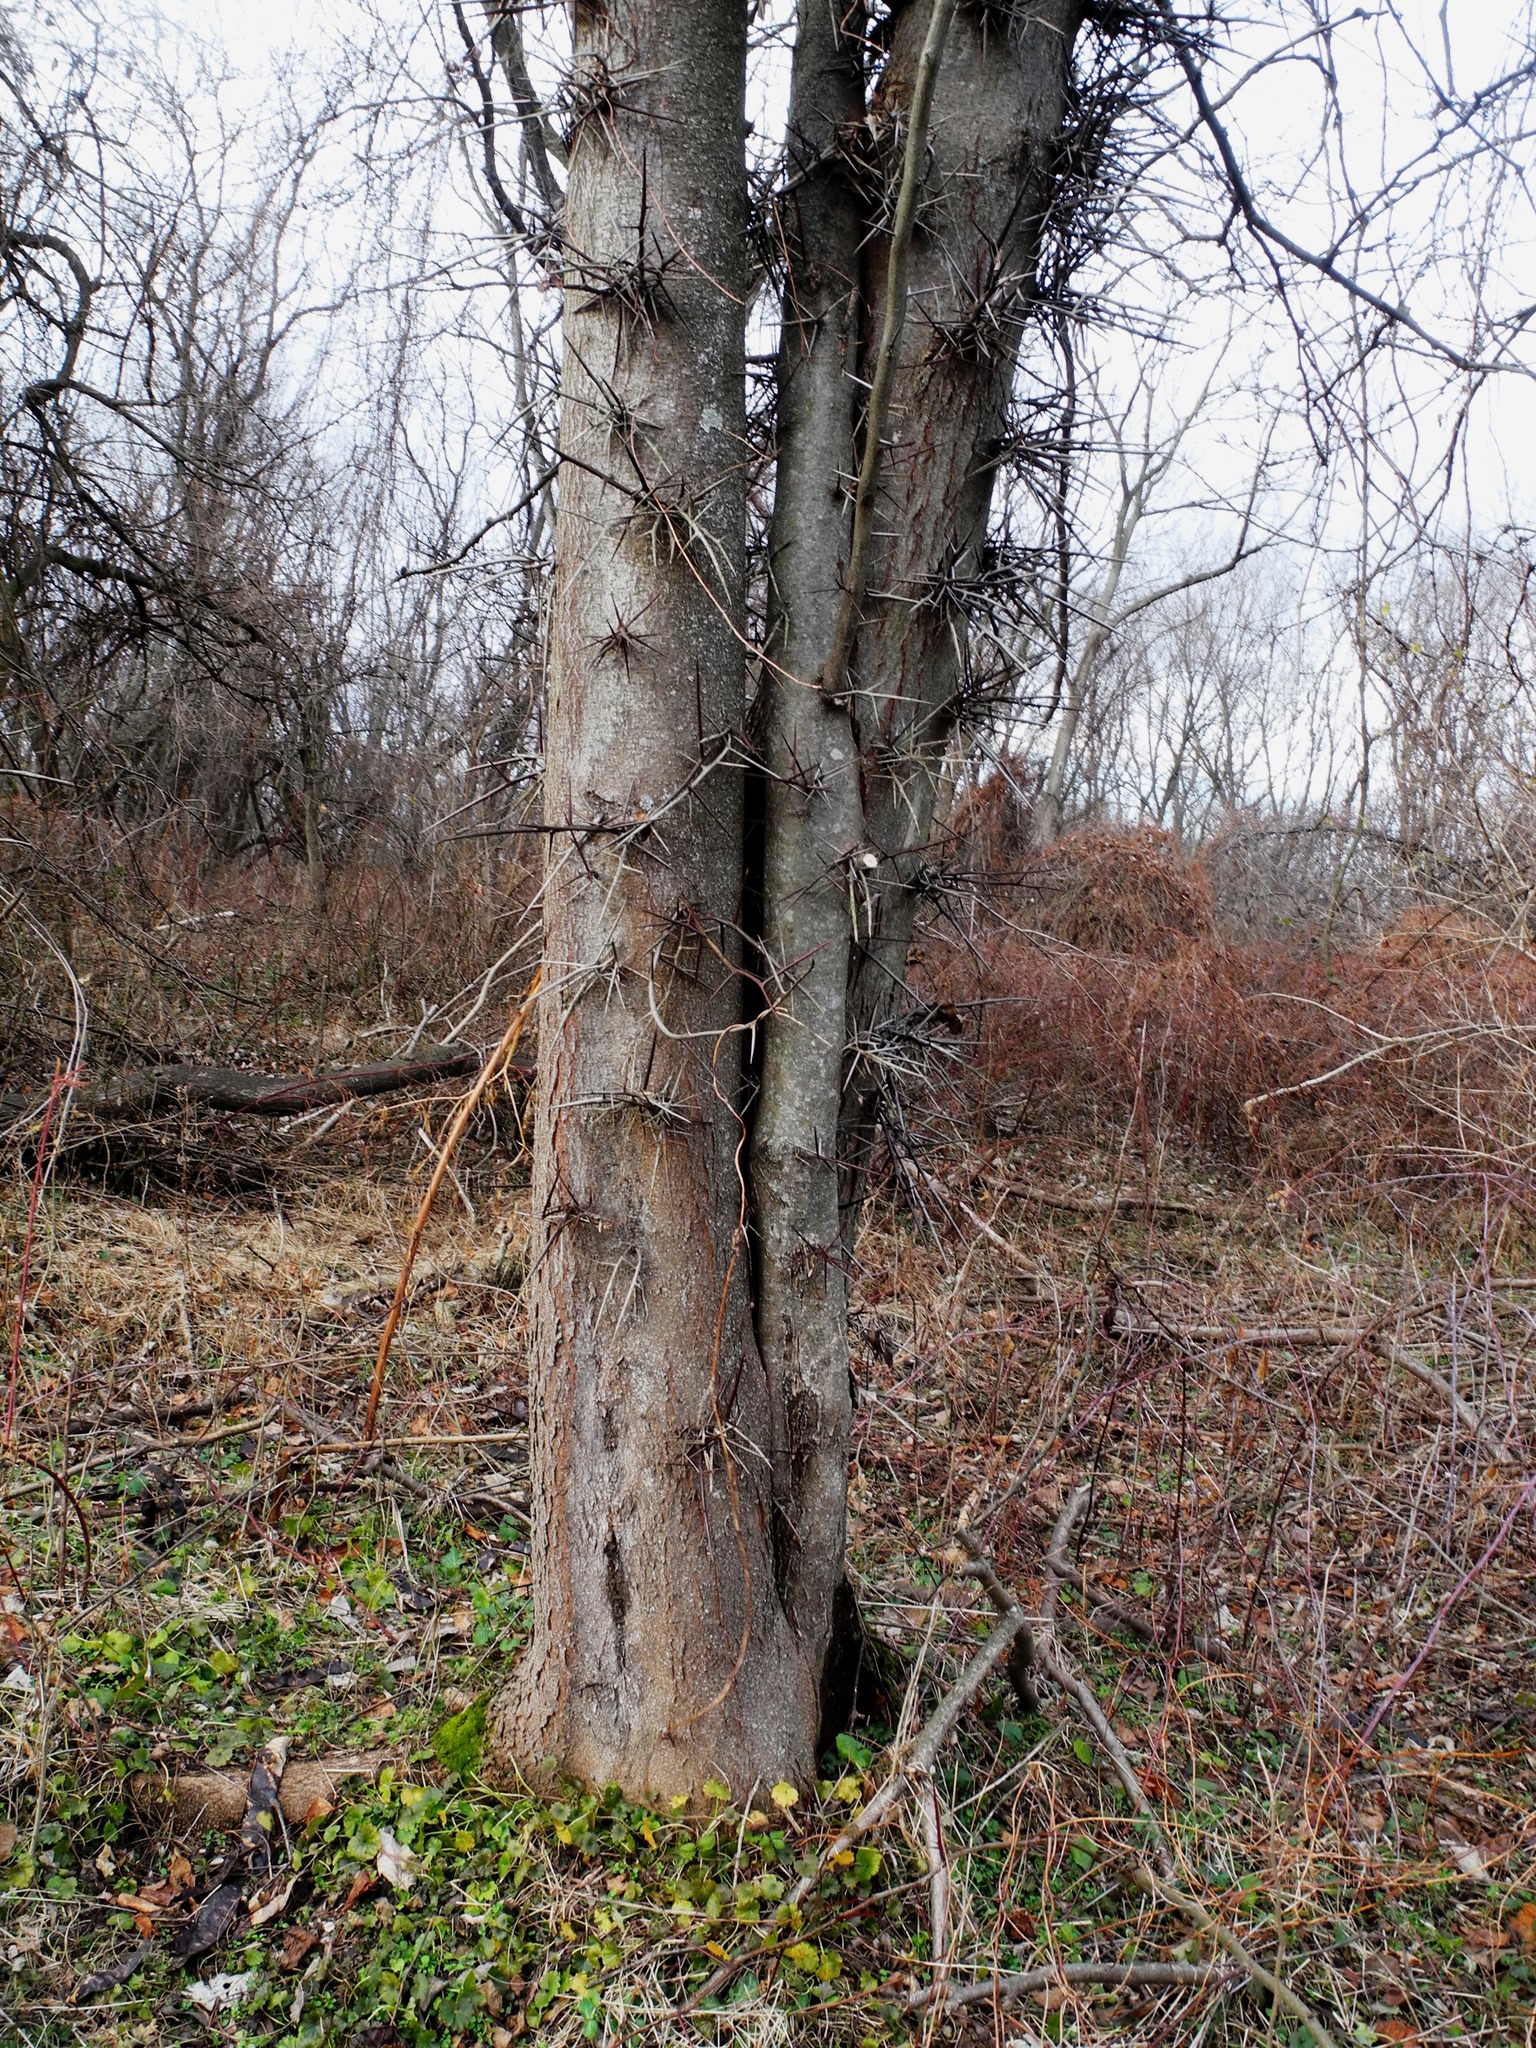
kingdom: Plantae
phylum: Tracheophyta
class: Magnoliopsida
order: Fabales
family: Fabaceae
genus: Gleditsia
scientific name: Gleditsia triacanthos
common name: Common honeylocust
